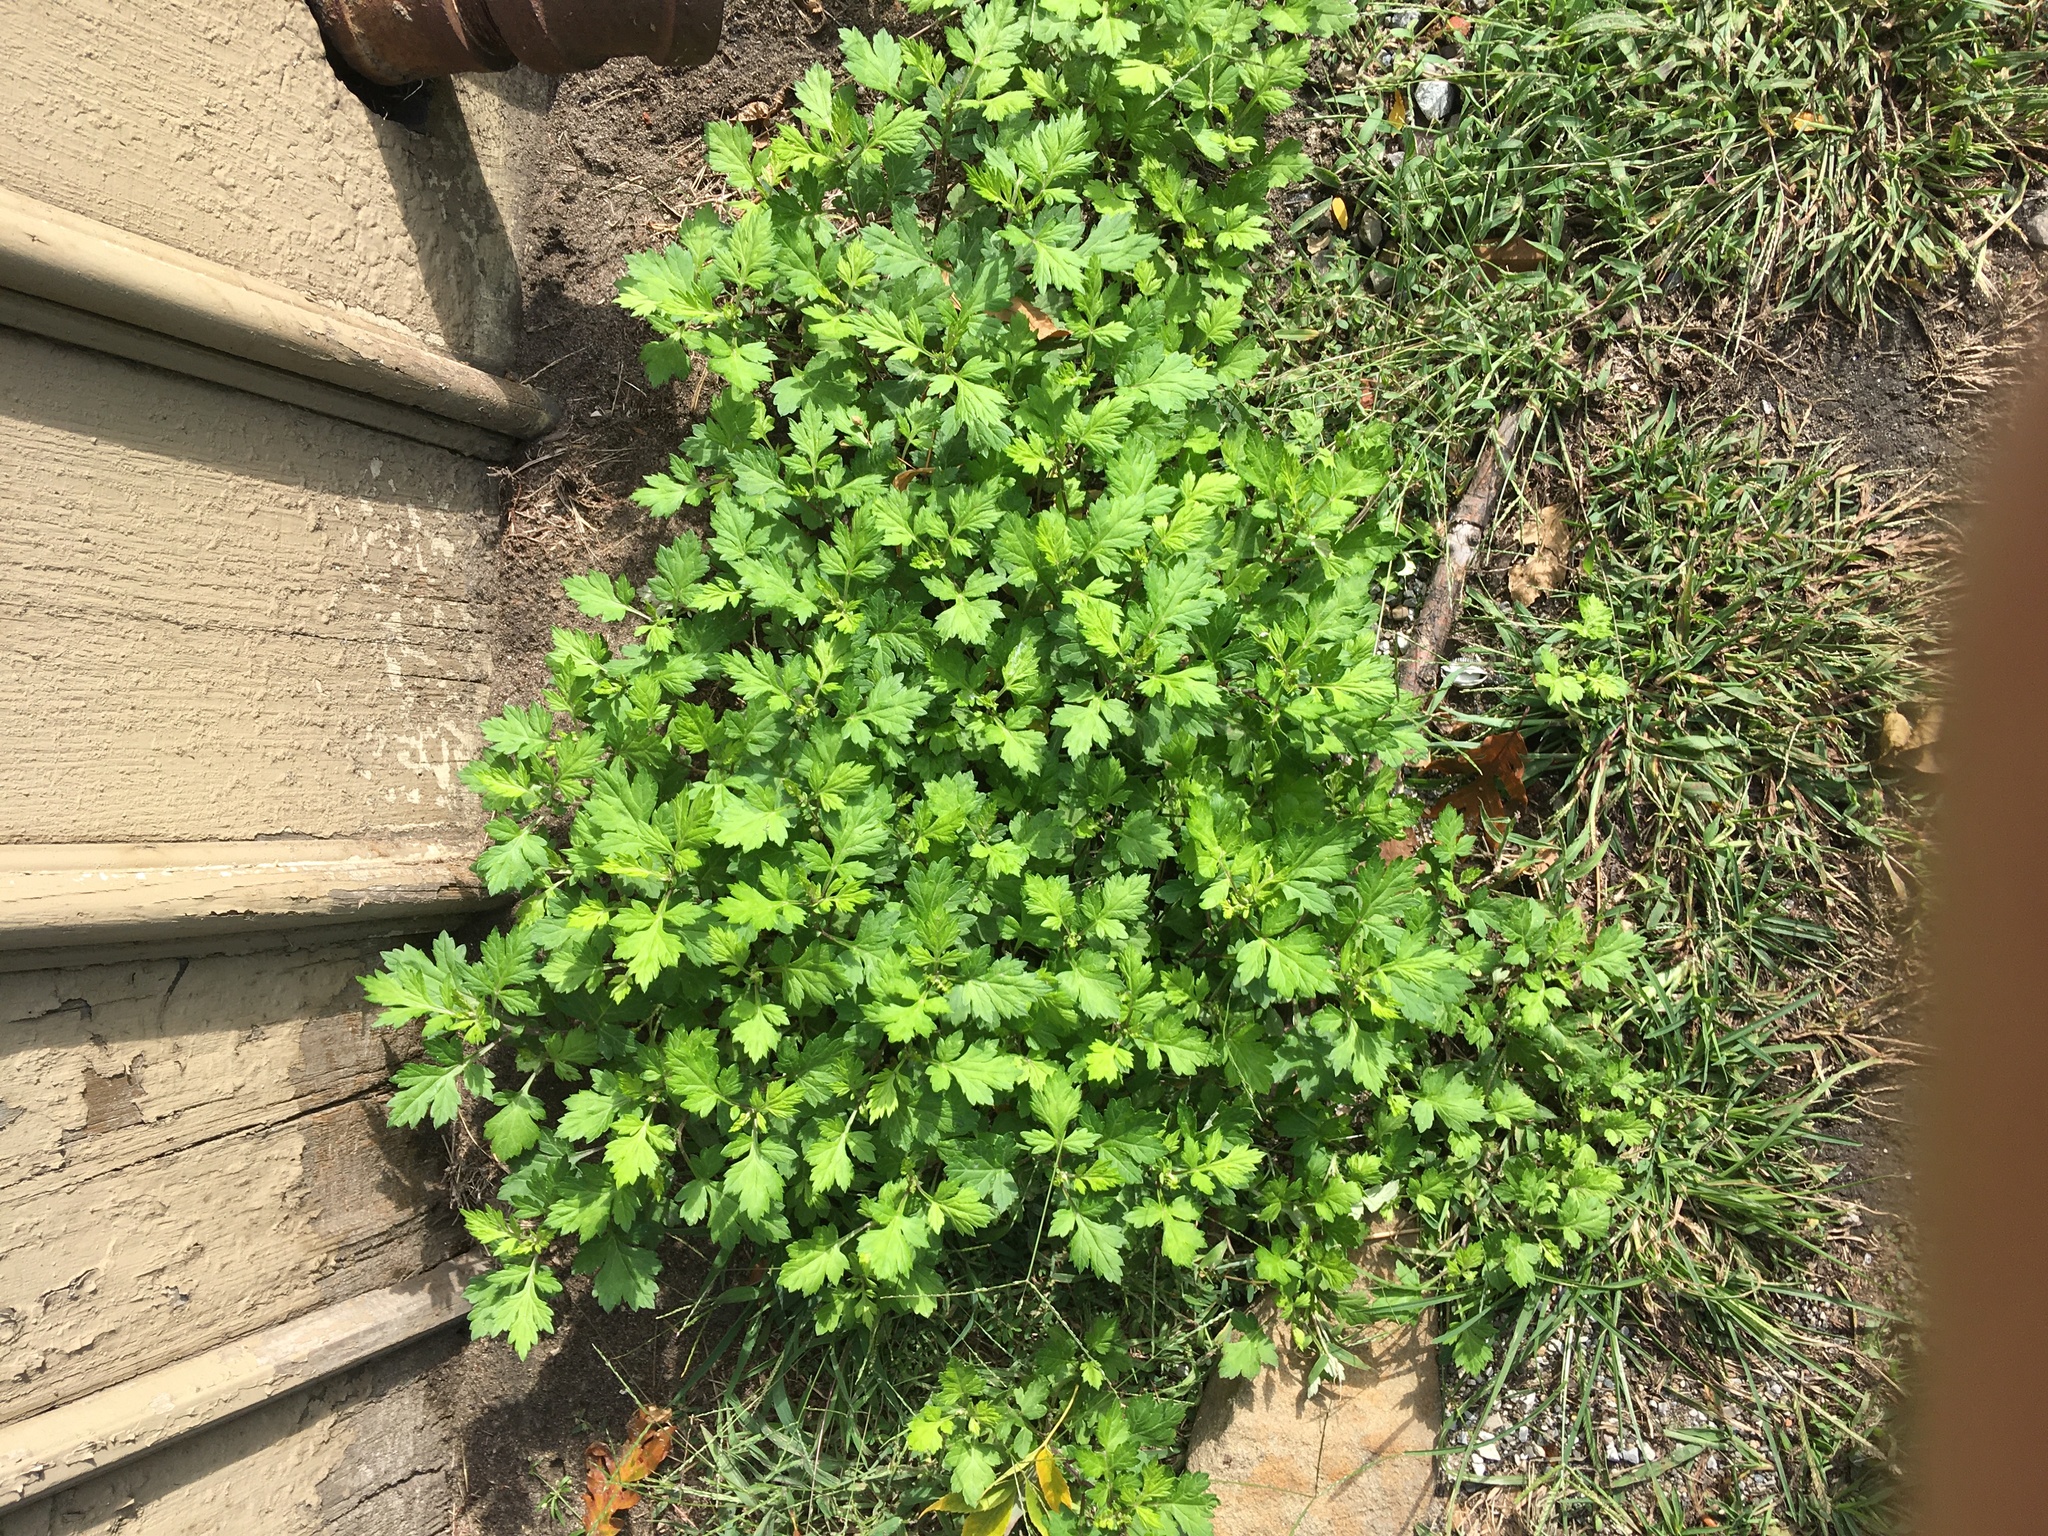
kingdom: Plantae
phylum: Tracheophyta
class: Magnoliopsida
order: Asterales
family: Asteraceae
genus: Artemisia
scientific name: Artemisia vulgaris
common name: Mugwort
